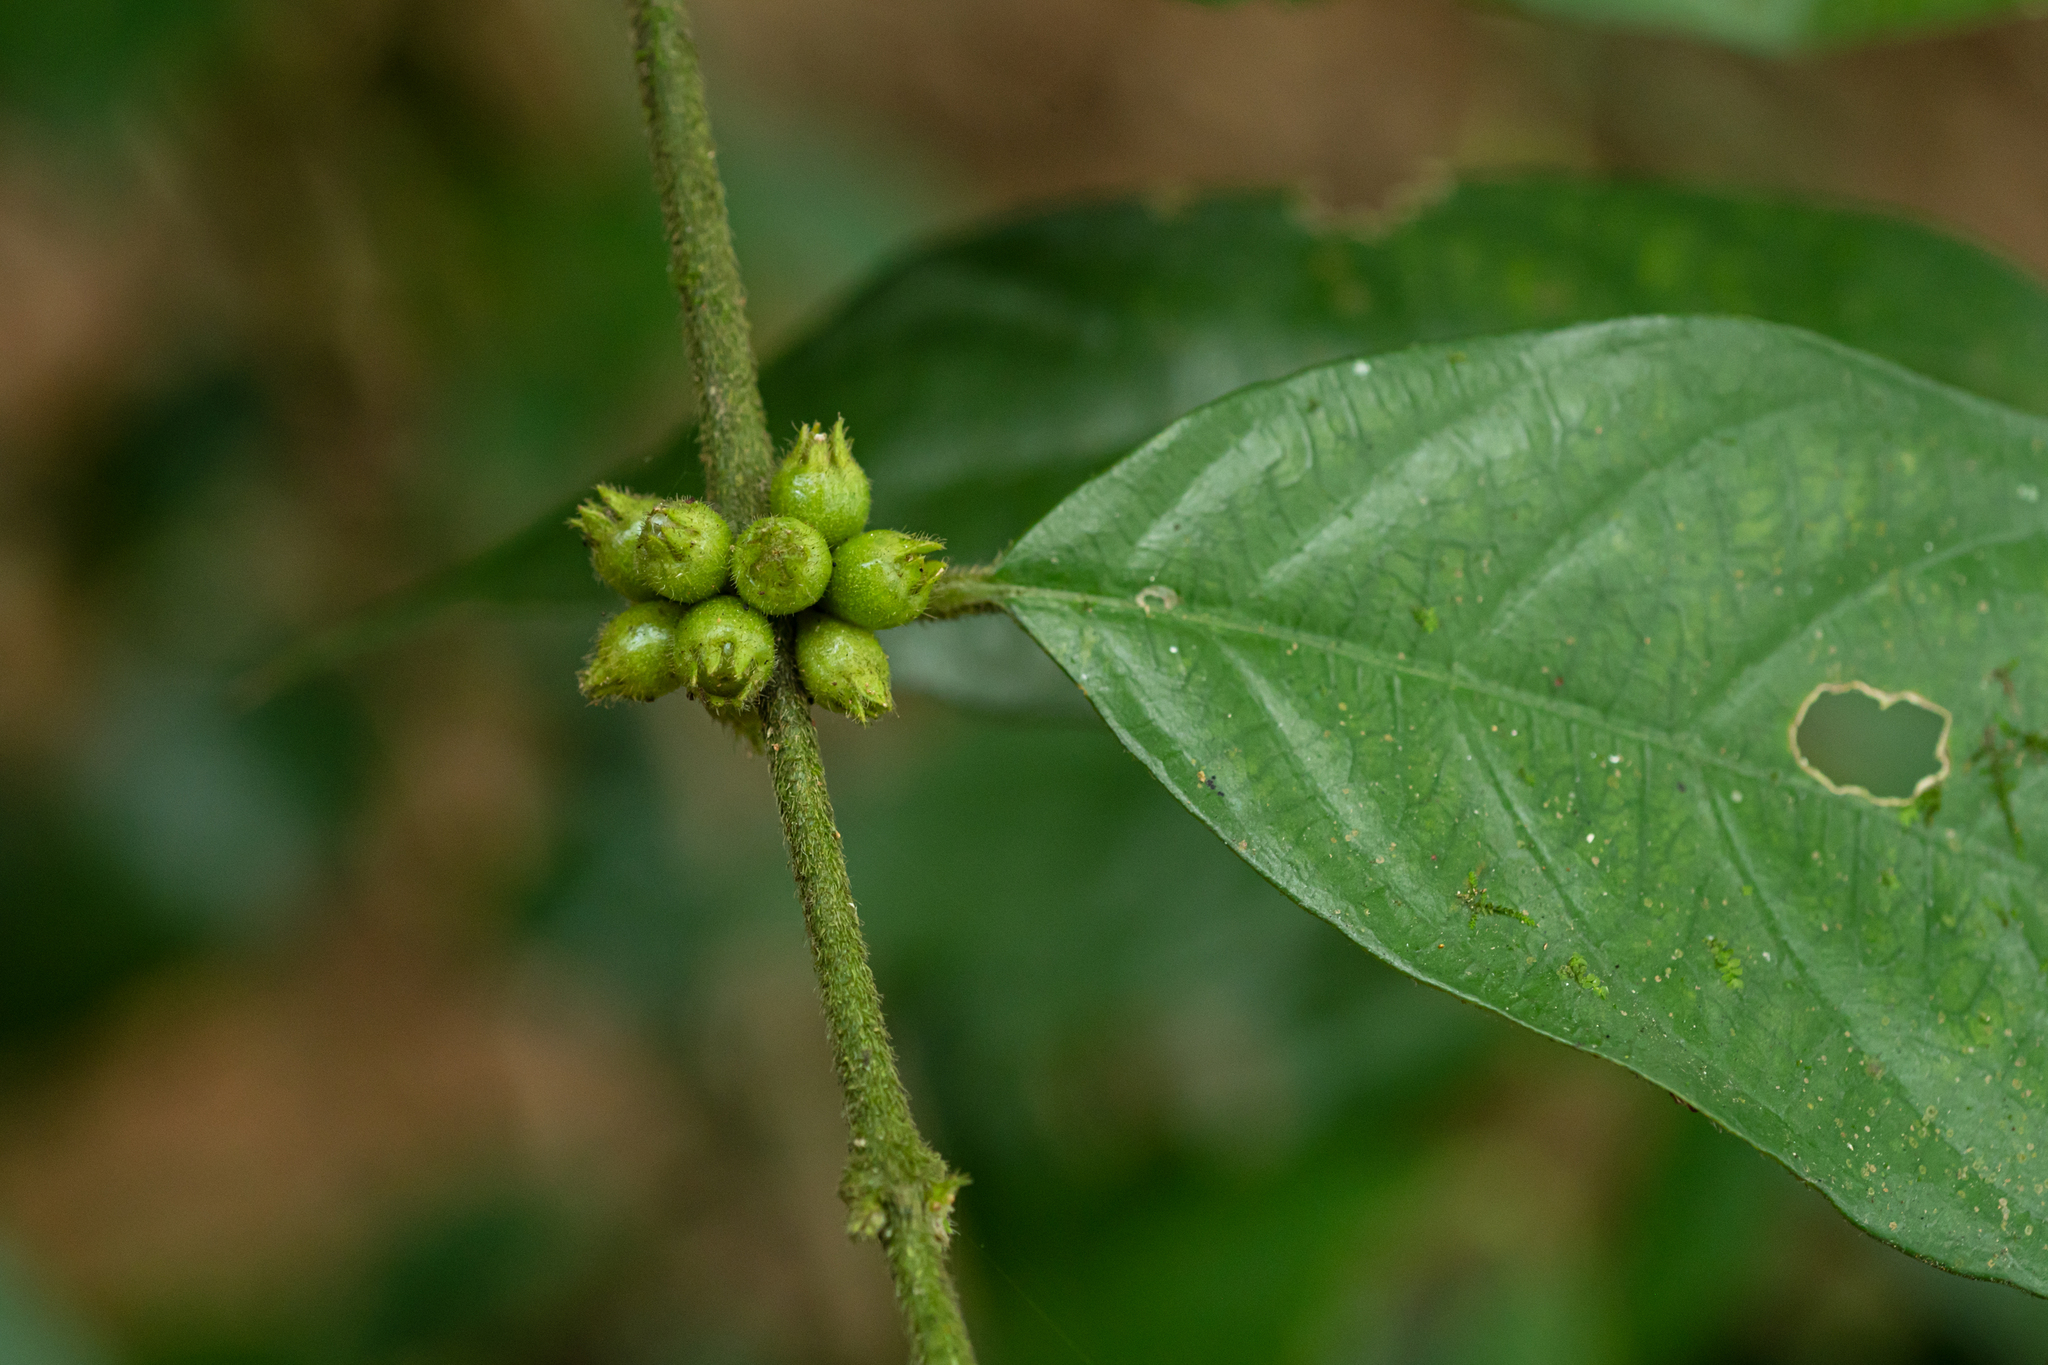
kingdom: Plantae
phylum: Tracheophyta
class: Magnoliopsida
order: Gentianales
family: Rubiaceae
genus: Lasianthus
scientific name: Lasianthus formosensis
